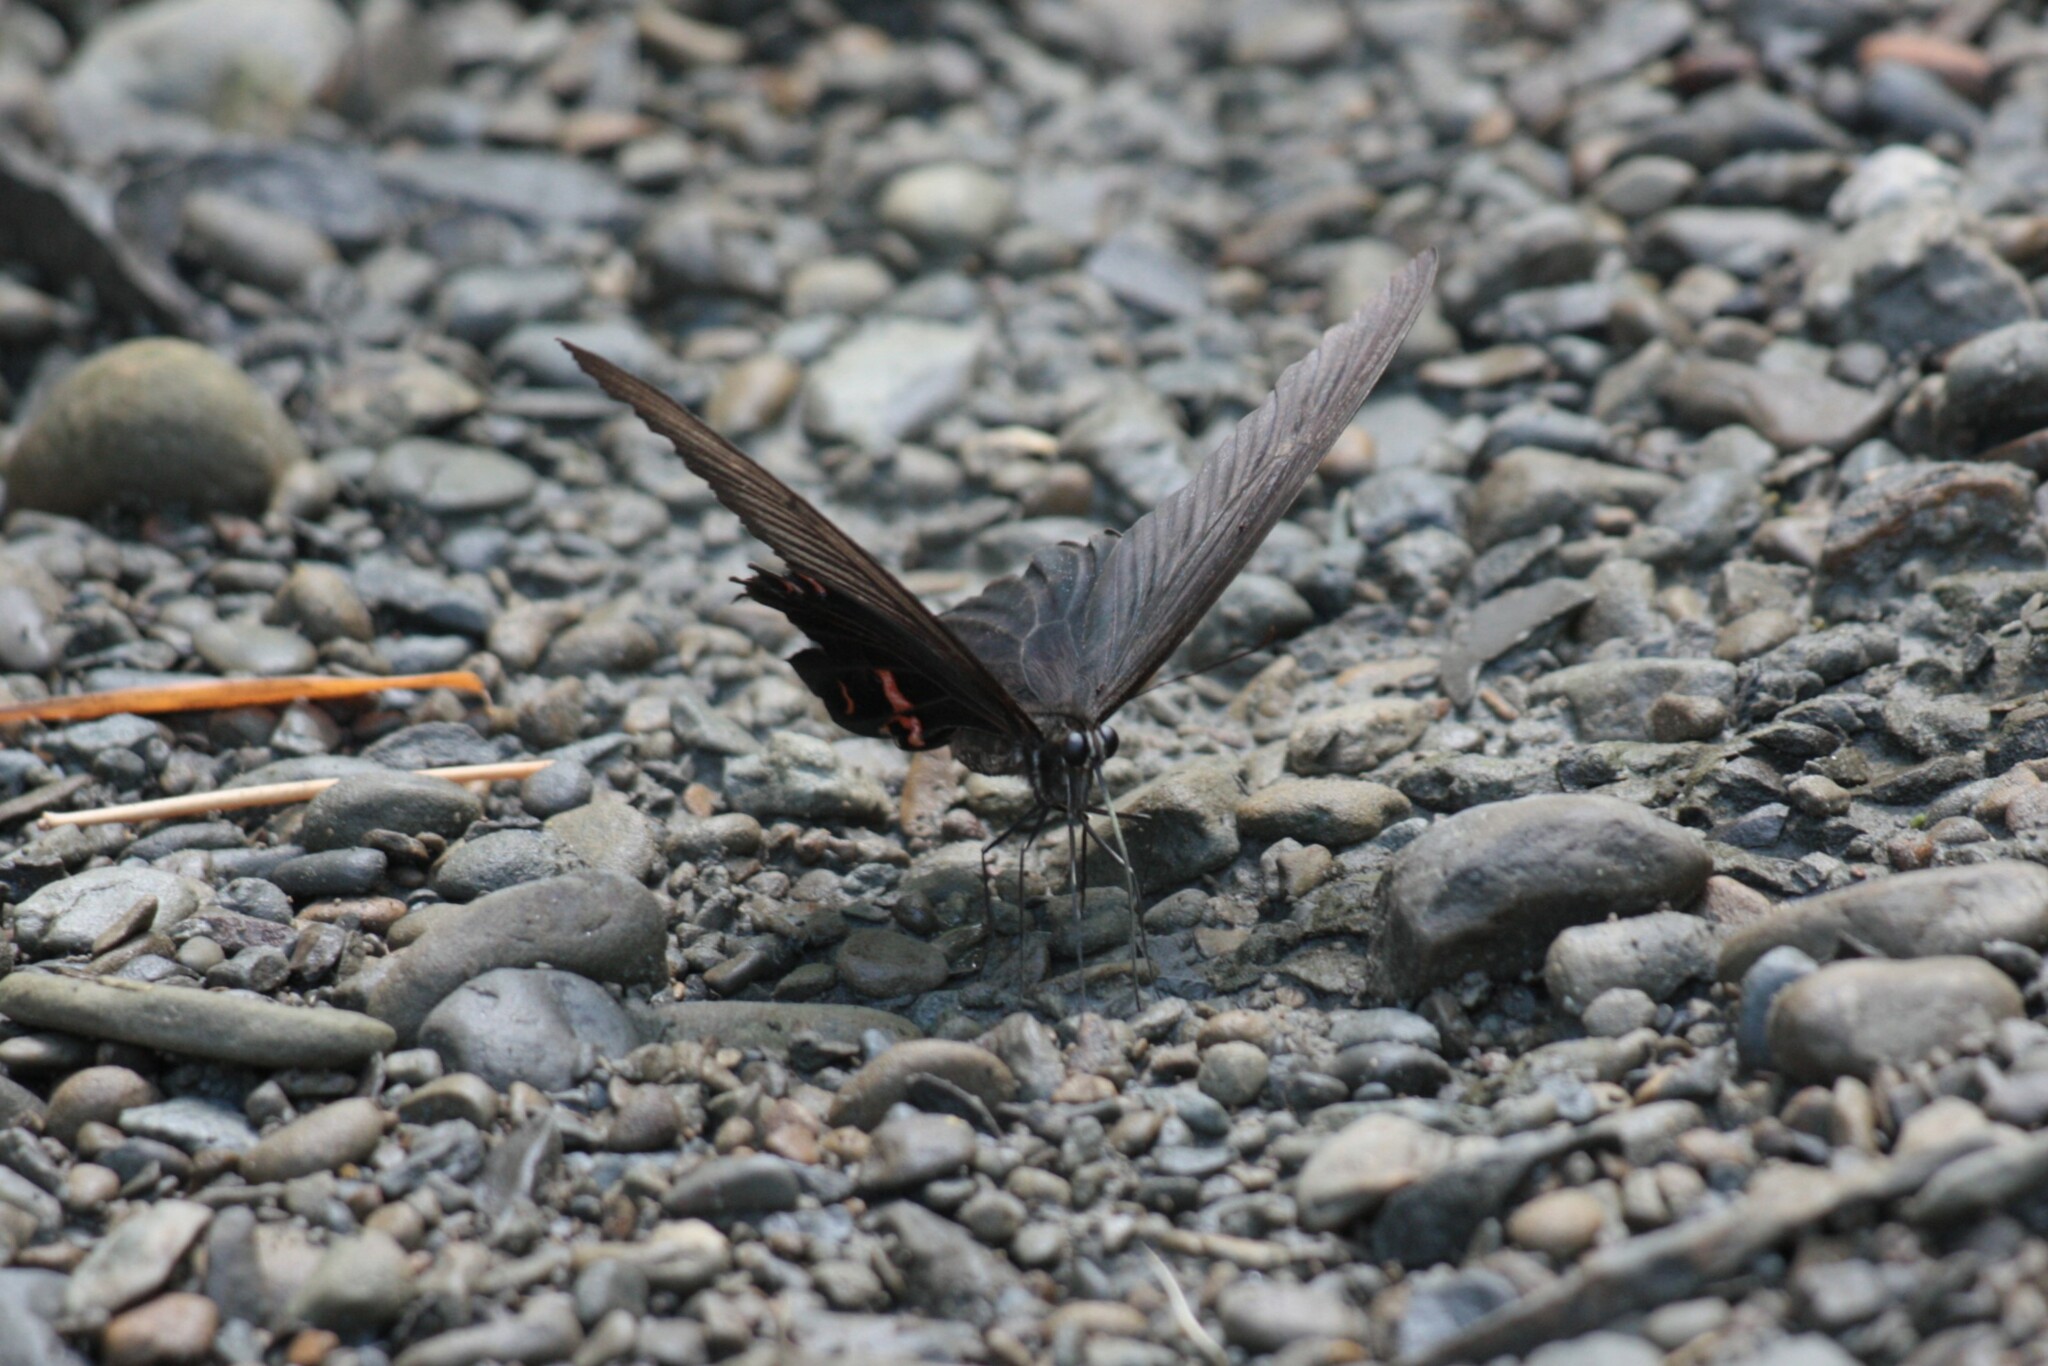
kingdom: Animalia
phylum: Arthropoda
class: Insecta
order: Lepidoptera
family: Papilionidae
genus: Papilio
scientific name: Papilio protenor
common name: Spangle
